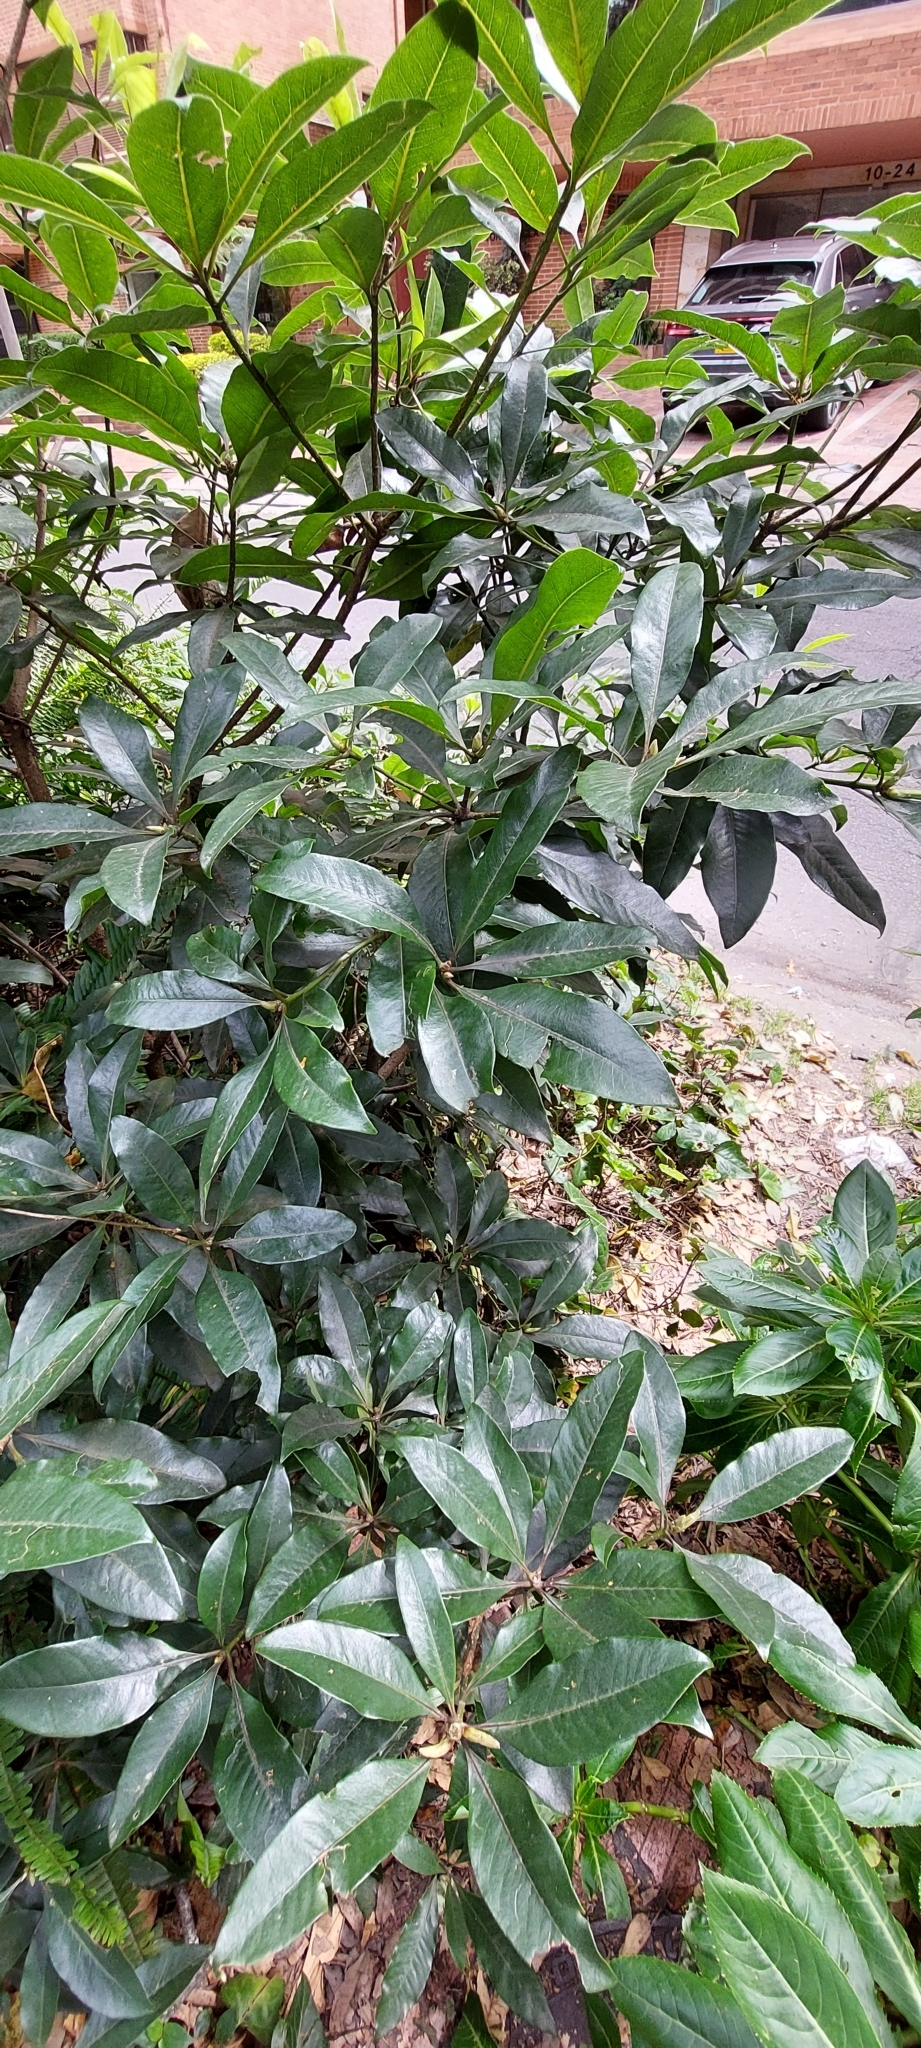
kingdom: Plantae
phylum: Tracheophyta
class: Magnoliopsida
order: Apiales
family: Pittosporaceae
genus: Pittosporum
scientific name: Pittosporum undulatum
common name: Australian cheesewood
